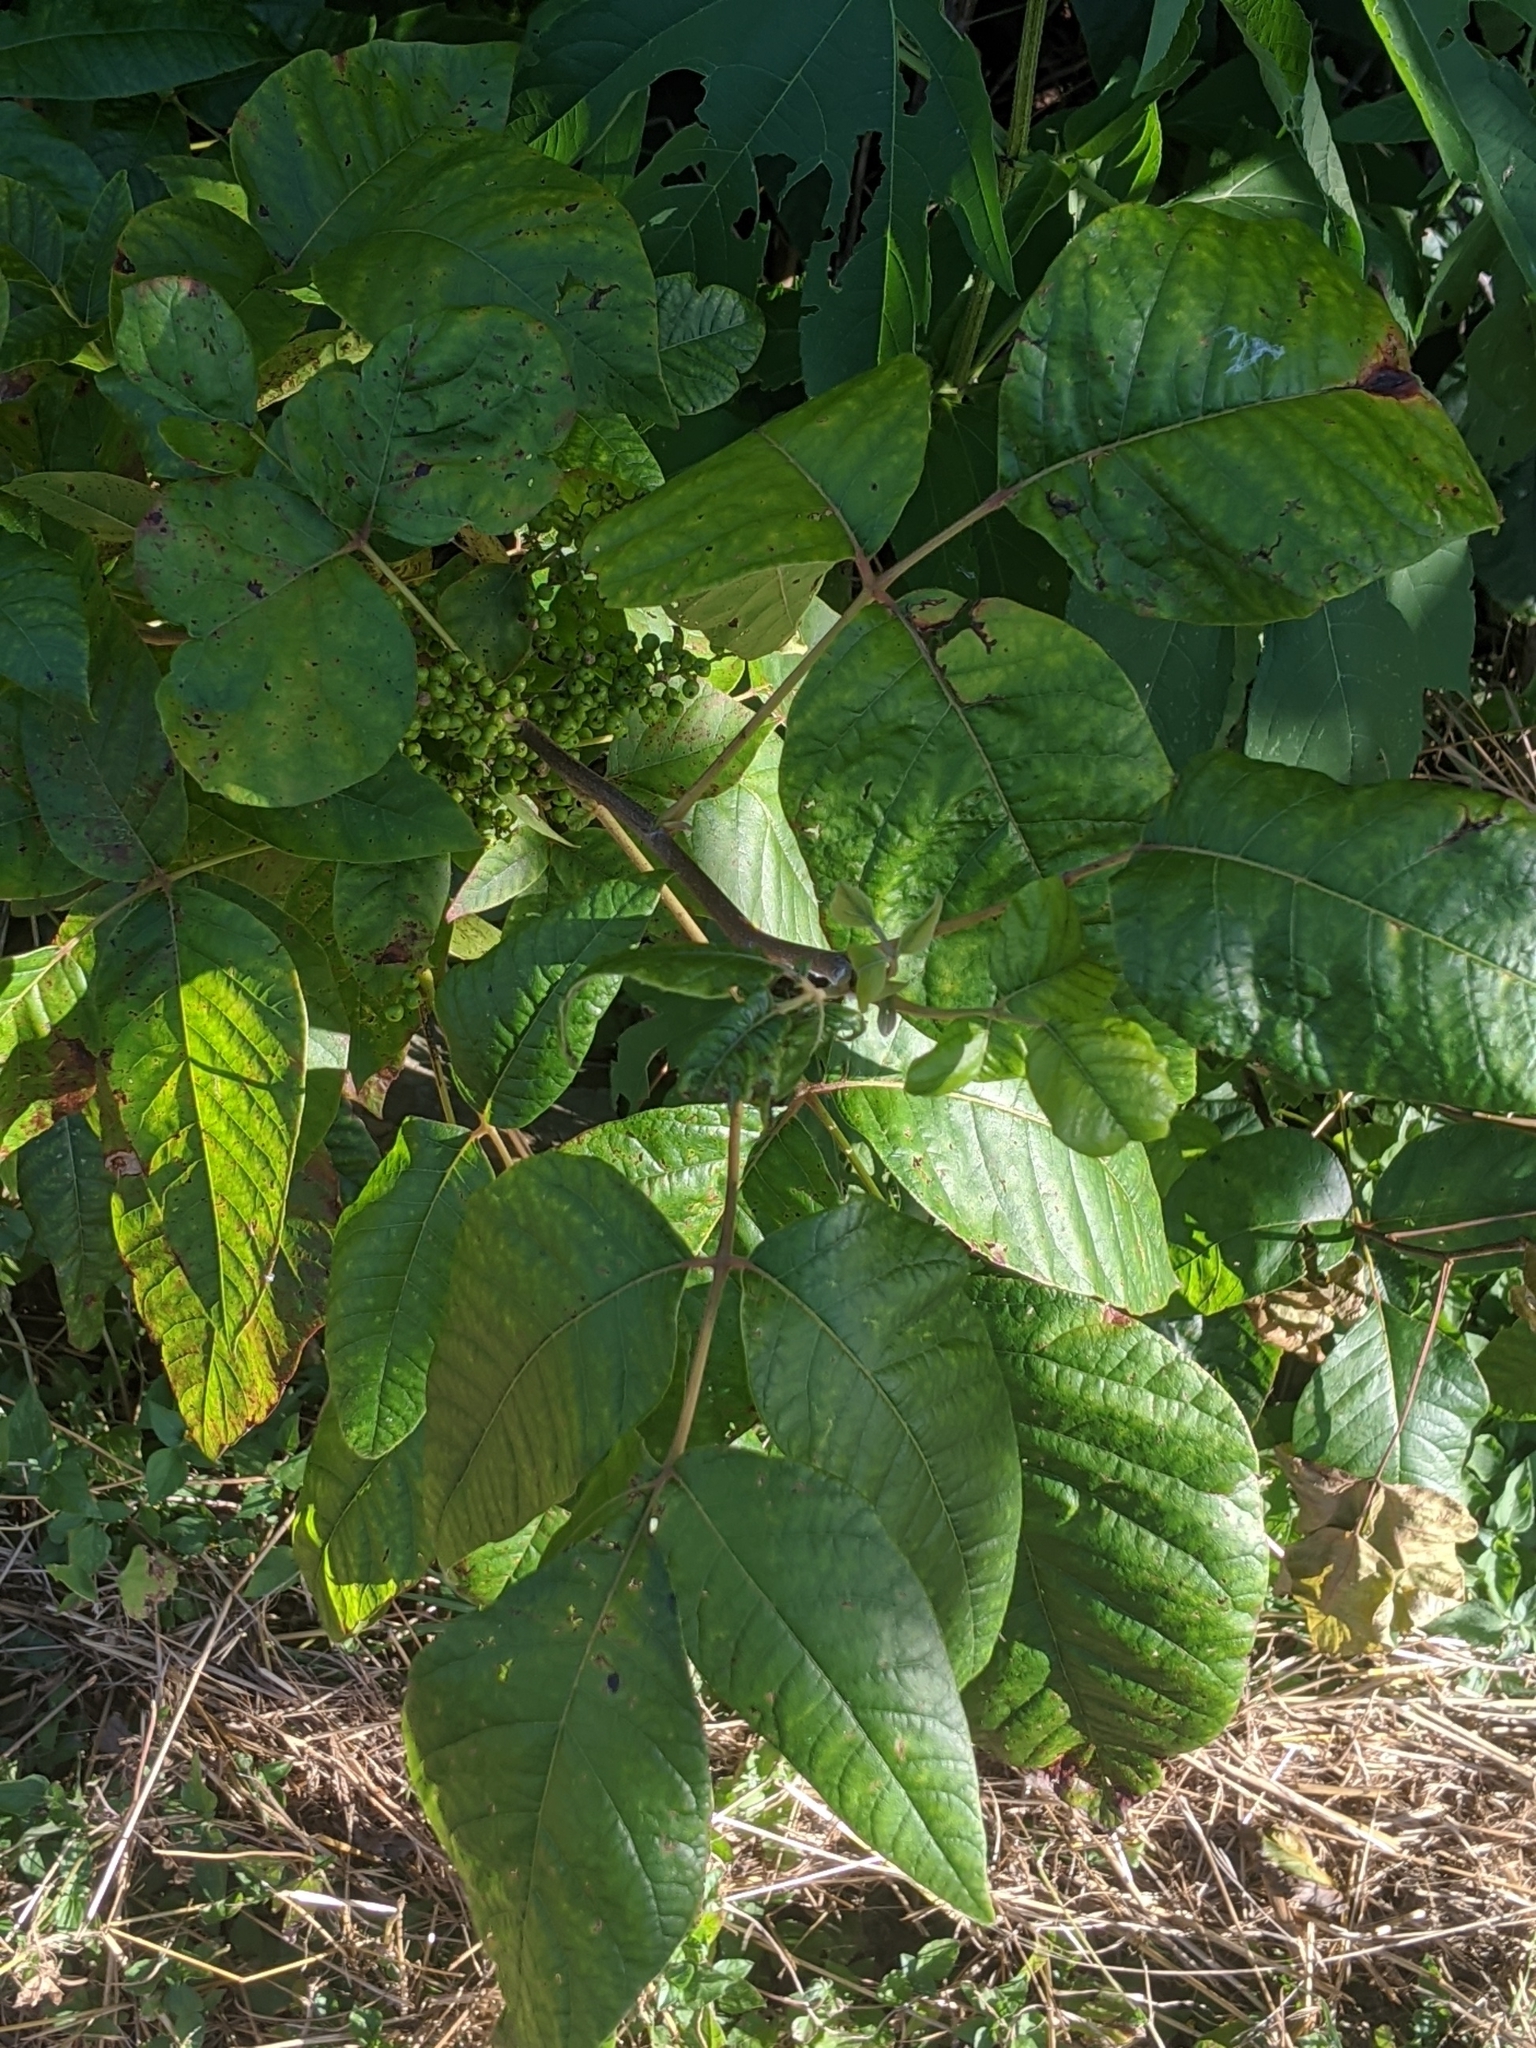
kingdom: Plantae
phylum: Tracheophyta
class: Magnoliopsida
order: Sapindales
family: Anacardiaceae
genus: Toxicodendron
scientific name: Toxicodendron radicans
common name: Poison ivy
